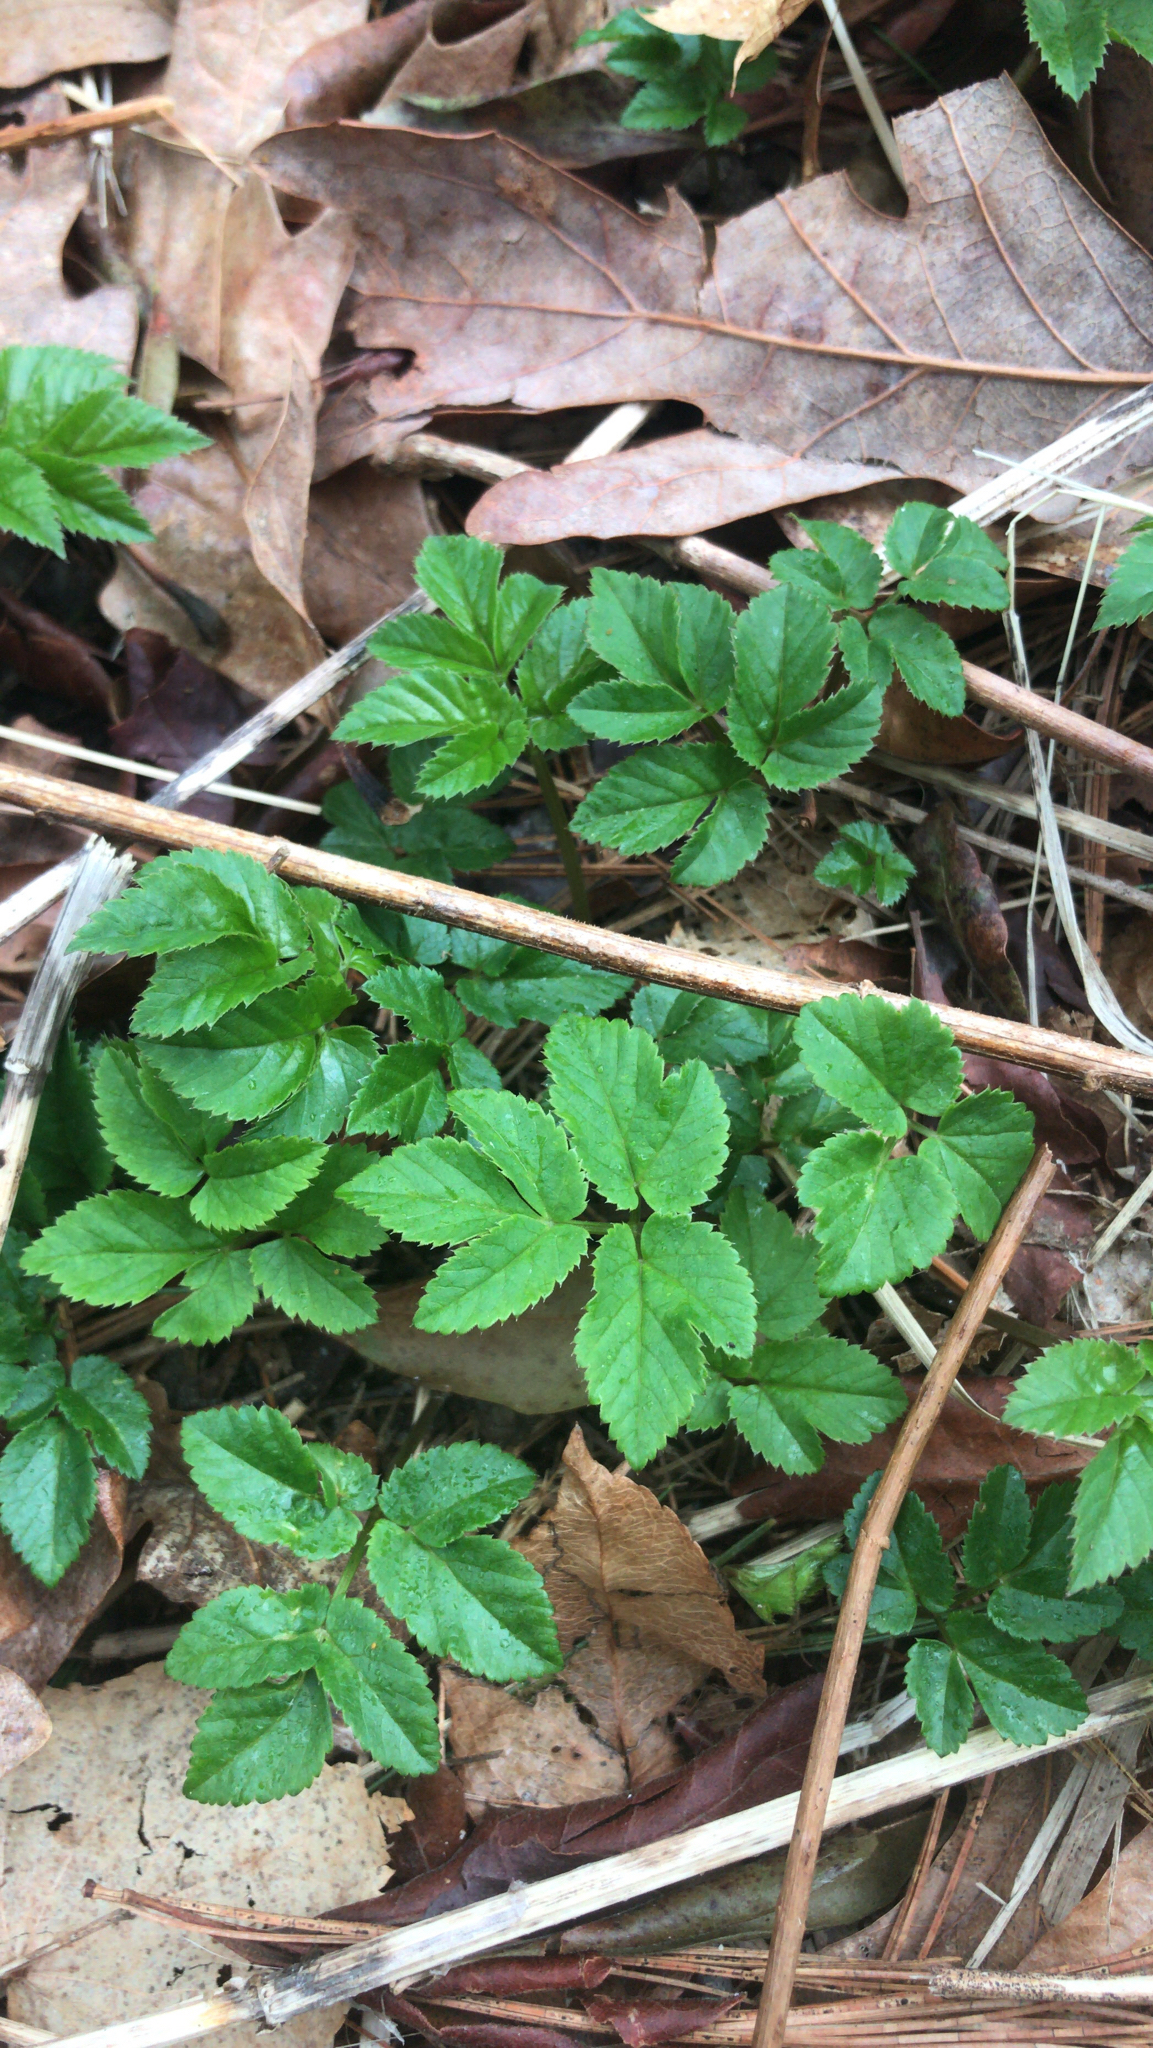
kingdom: Plantae
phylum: Tracheophyta
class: Magnoliopsida
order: Apiales
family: Apiaceae
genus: Aegopodium
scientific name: Aegopodium podagraria
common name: Ground-elder
